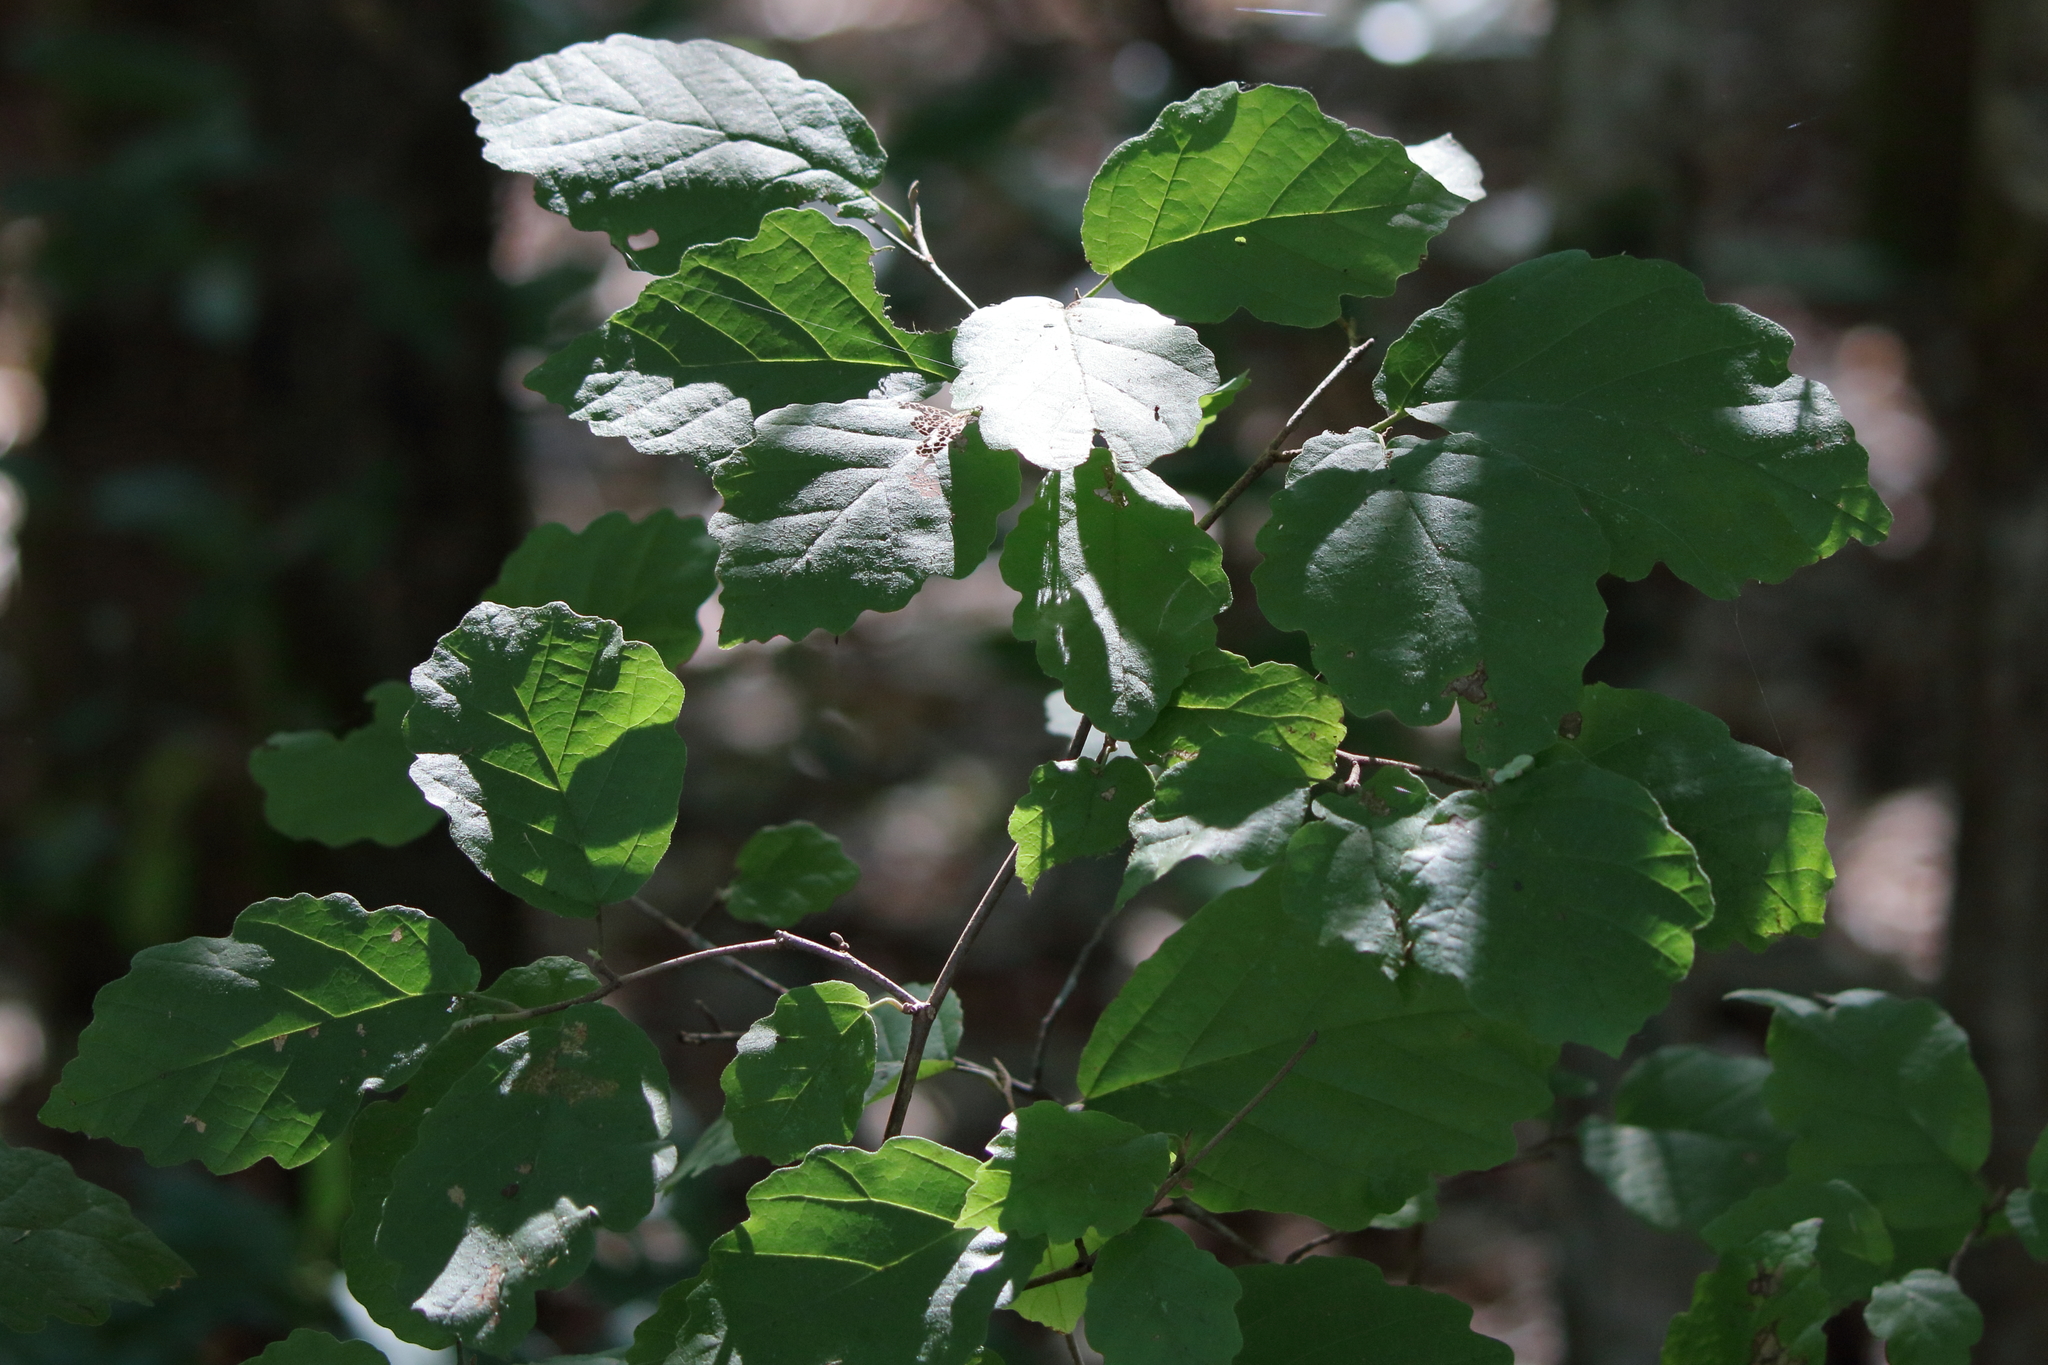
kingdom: Plantae
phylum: Tracheophyta
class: Magnoliopsida
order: Saxifragales
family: Hamamelidaceae
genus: Hamamelis
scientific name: Hamamelis virginiana
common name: Witch-hazel
